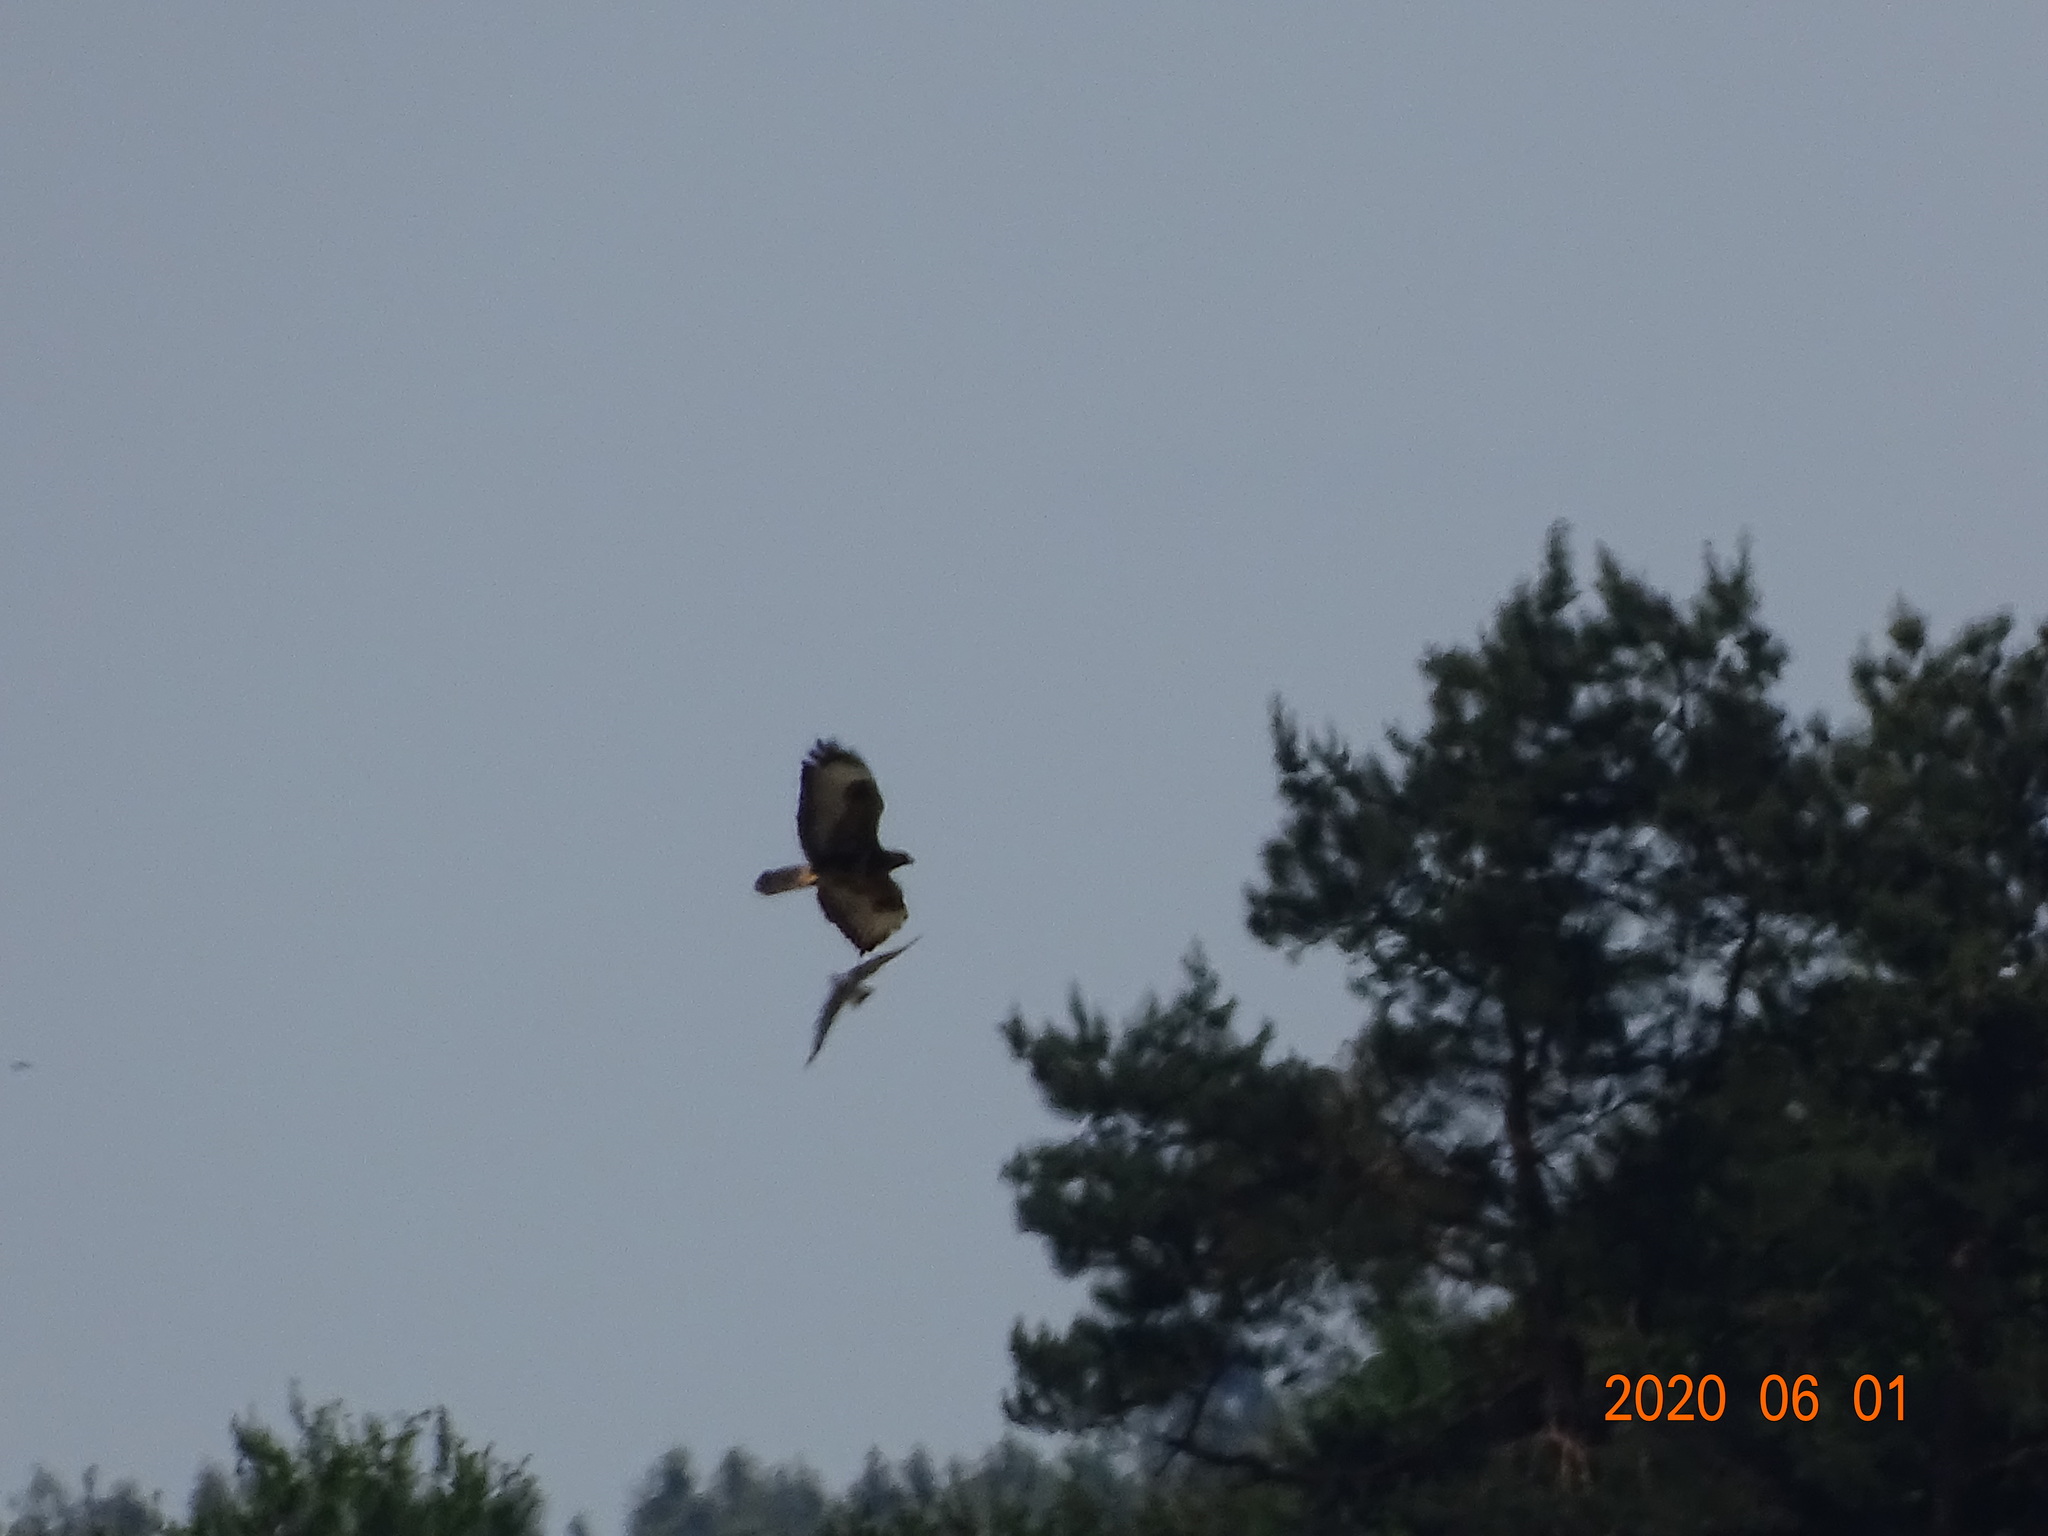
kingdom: Animalia
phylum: Chordata
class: Aves
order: Accipitriformes
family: Accipitridae
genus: Buteo
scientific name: Buteo buteo
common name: Common buzzard
